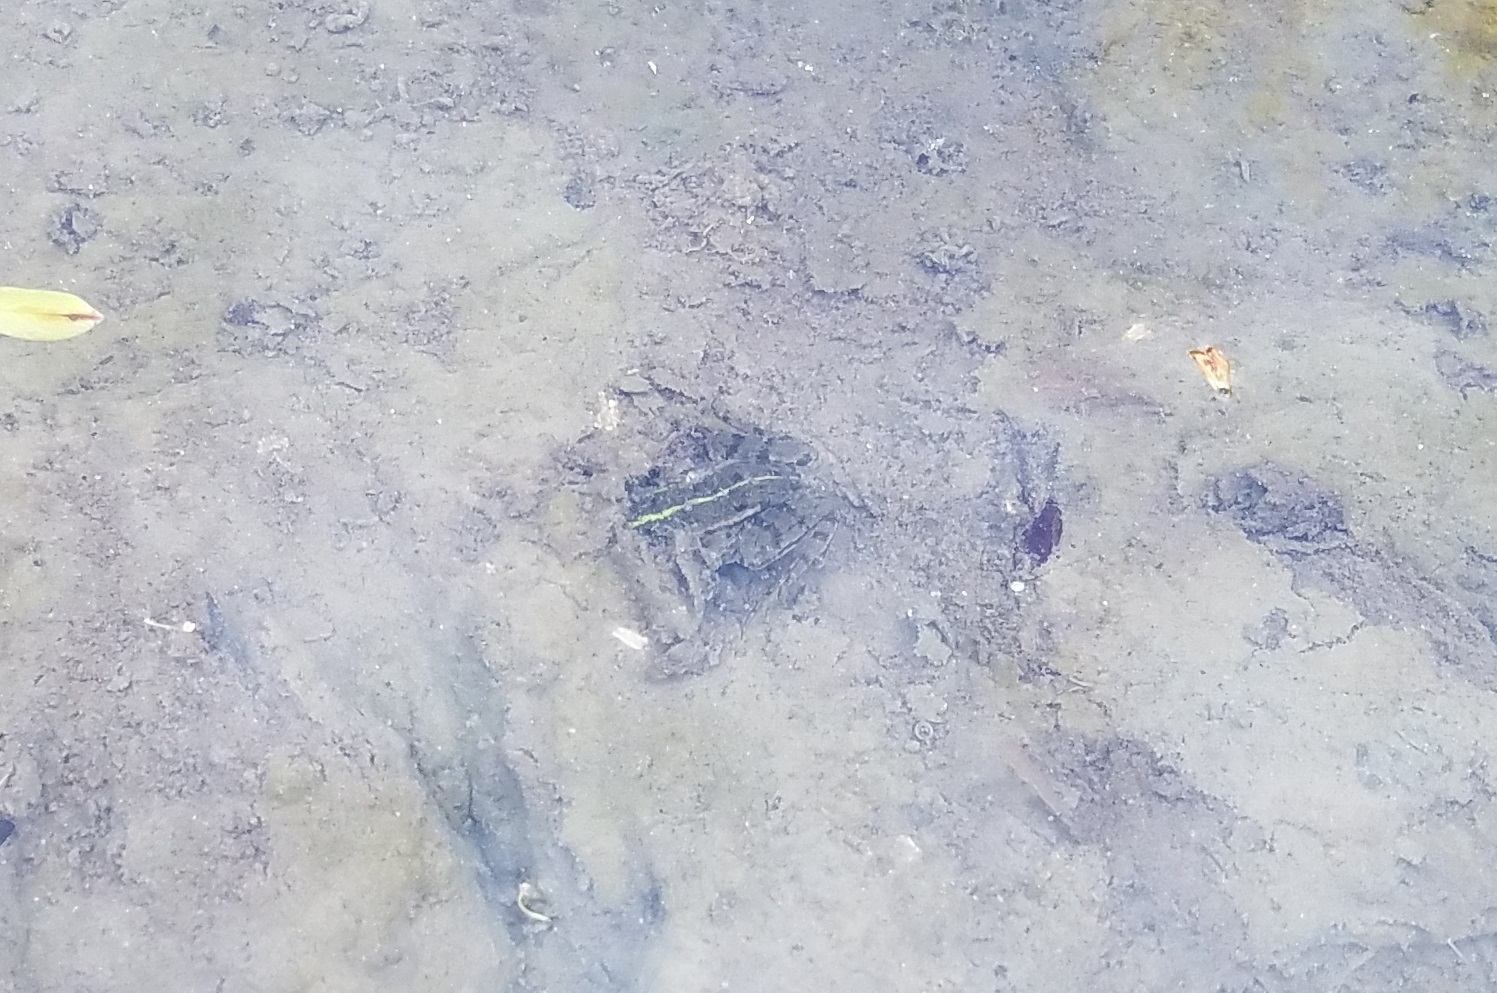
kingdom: Animalia
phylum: Chordata
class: Amphibia
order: Anura
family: Ranidae
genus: Pelophylax
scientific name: Pelophylax
